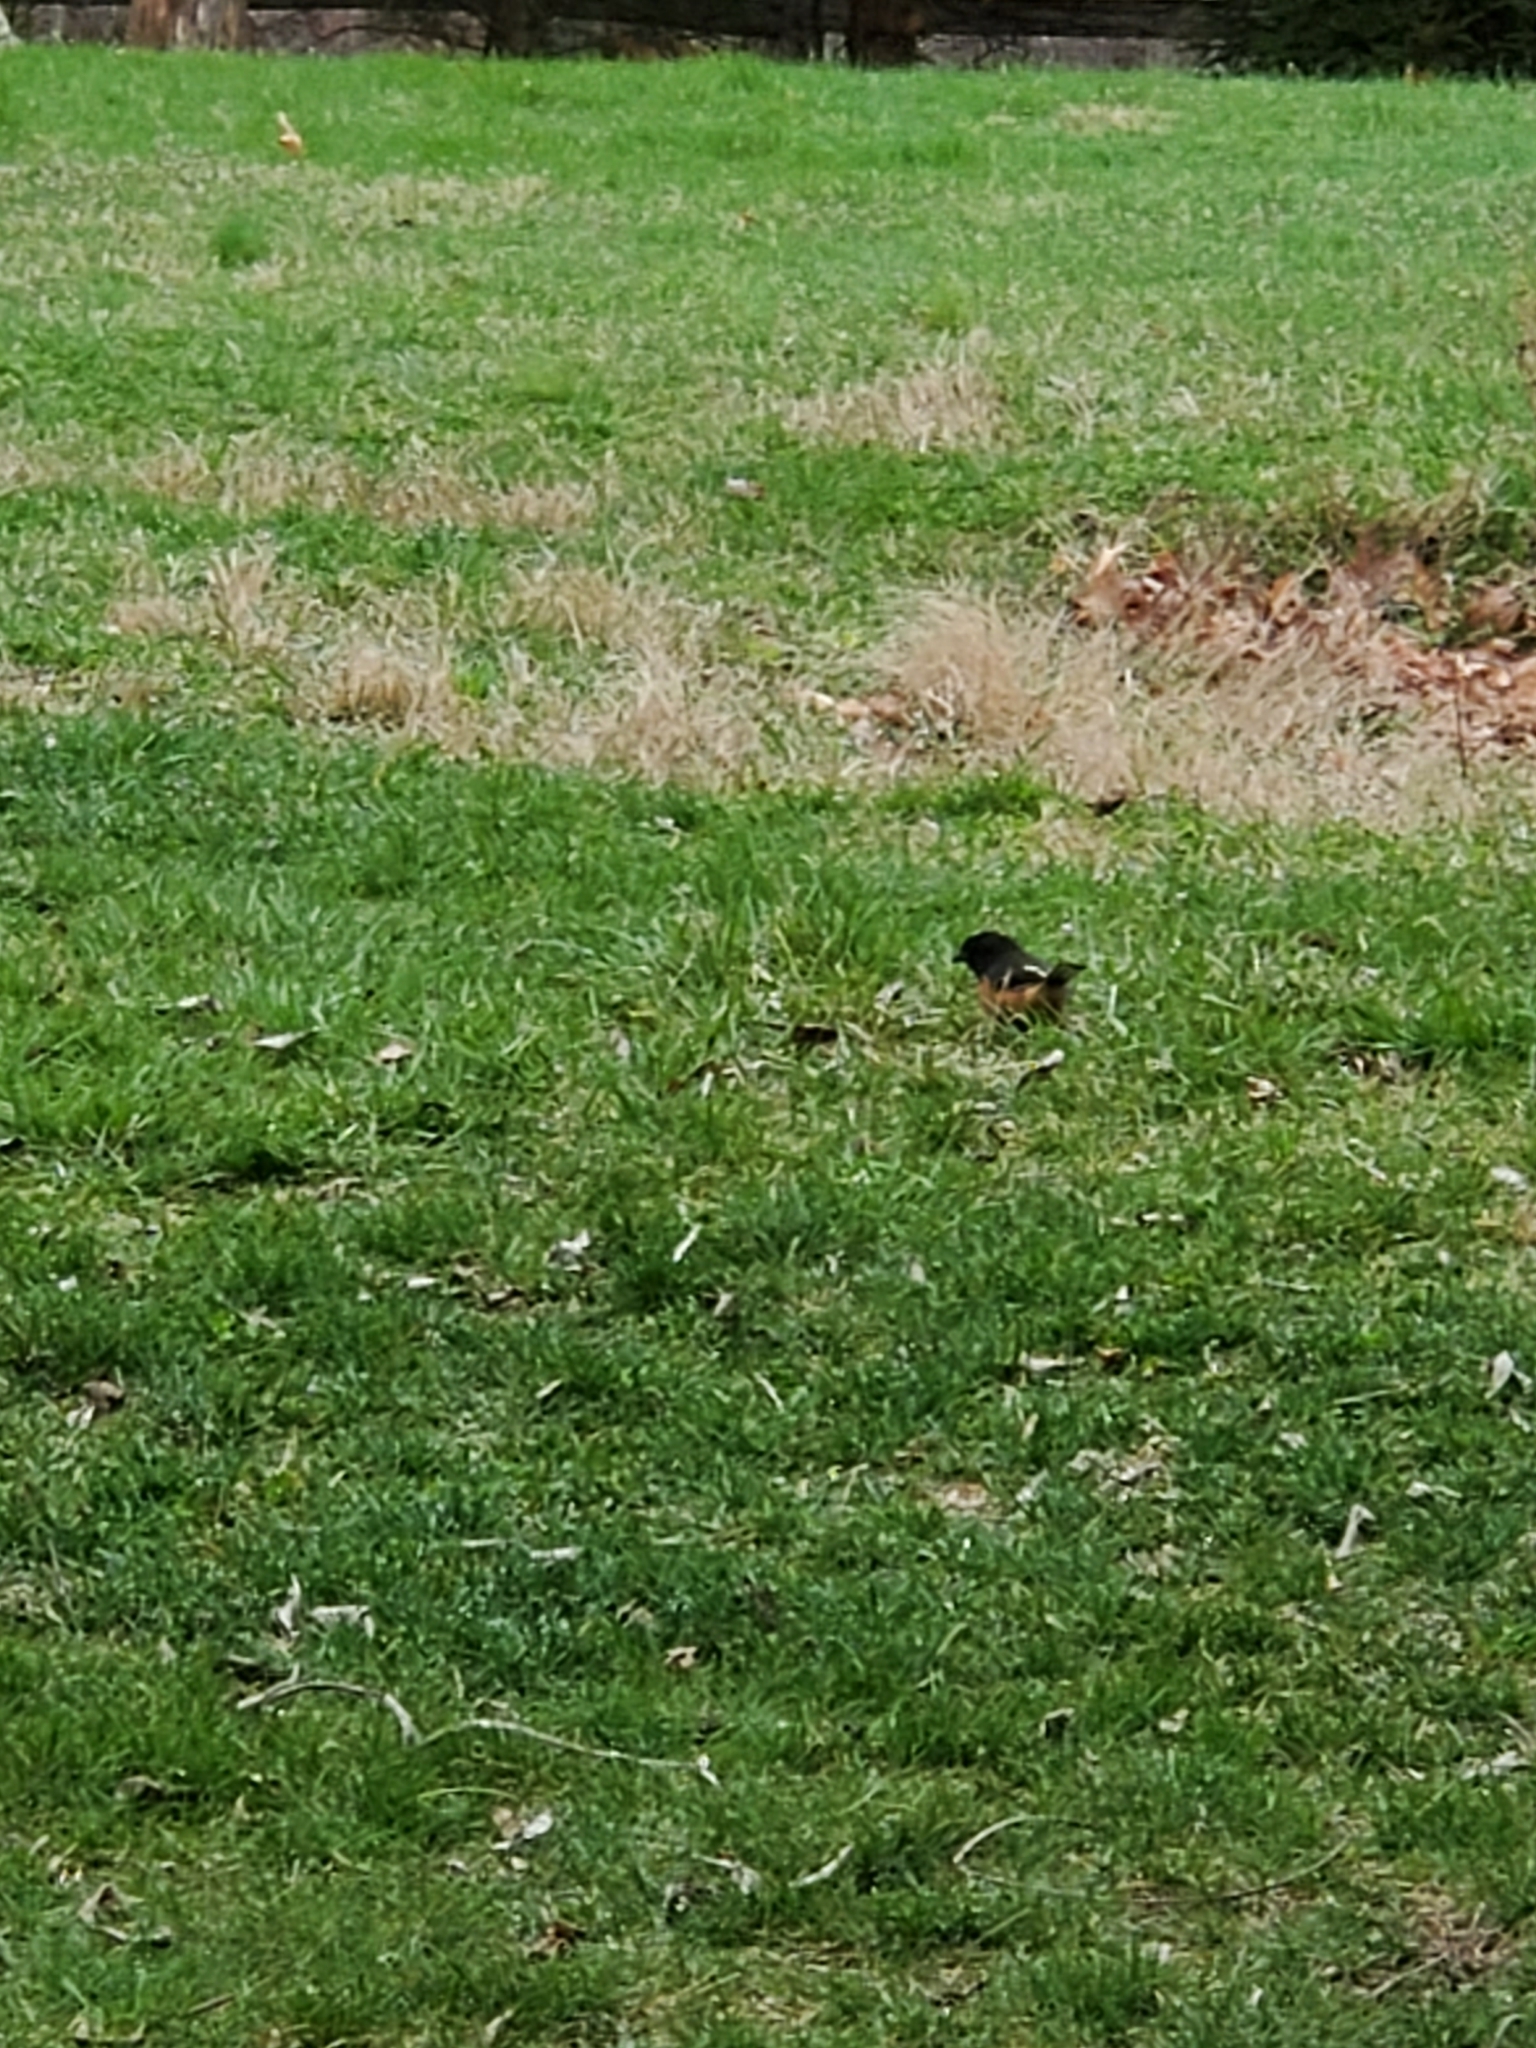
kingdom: Animalia
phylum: Chordata
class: Aves
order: Passeriformes
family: Passerellidae
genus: Pipilo
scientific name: Pipilo erythrophthalmus
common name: Eastern towhee
